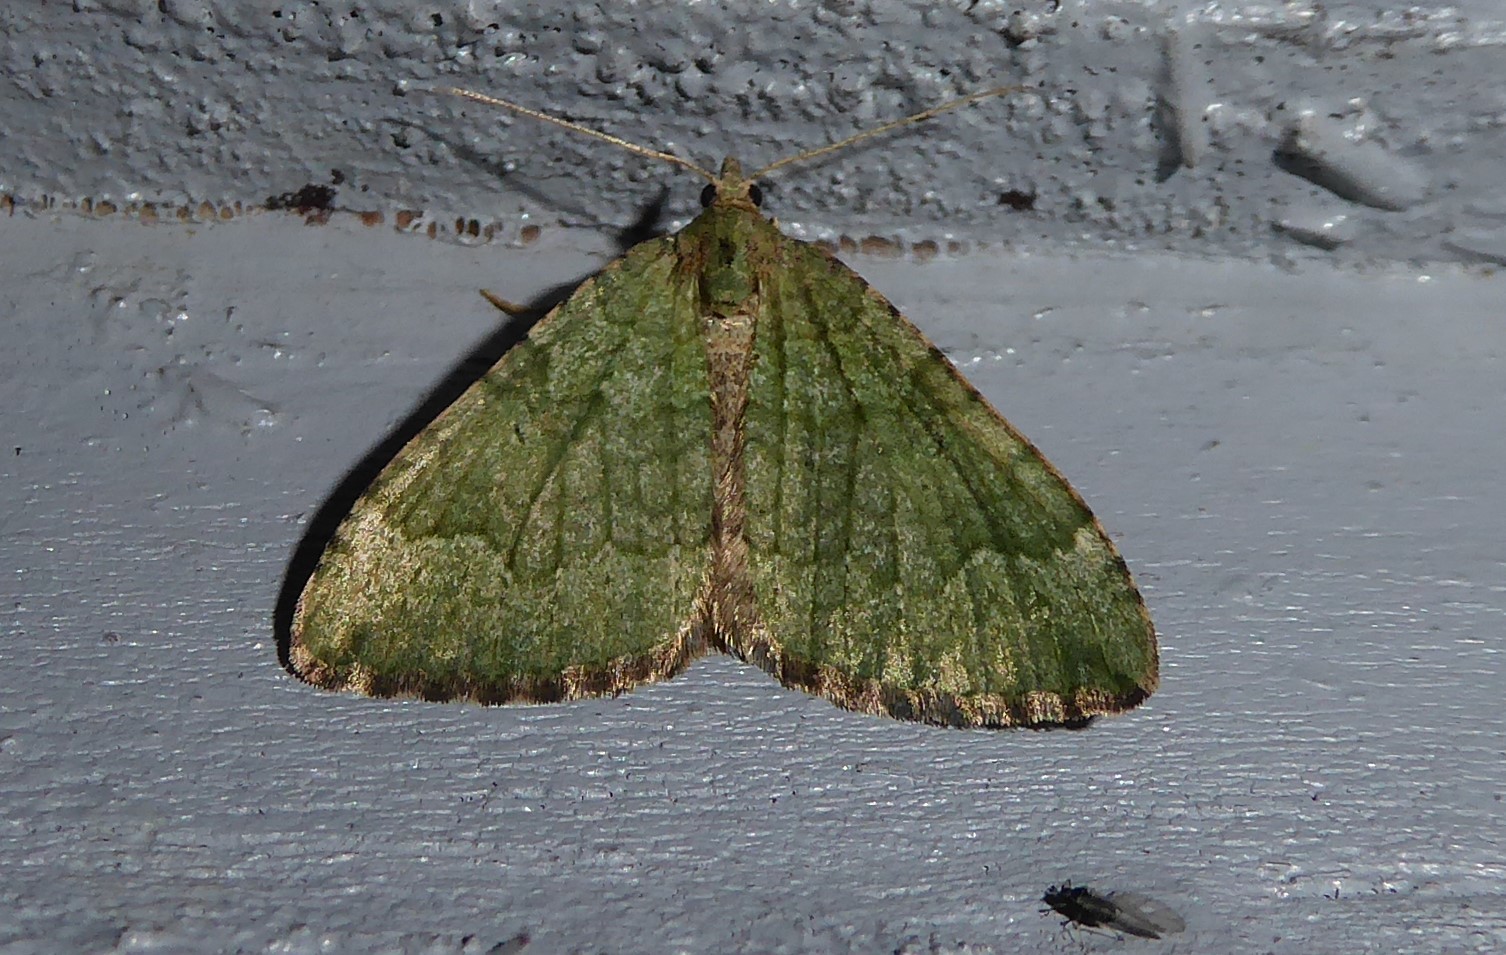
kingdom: Animalia
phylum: Arthropoda
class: Insecta
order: Lepidoptera
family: Geometridae
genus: Epyaxa
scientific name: Epyaxa rosearia
